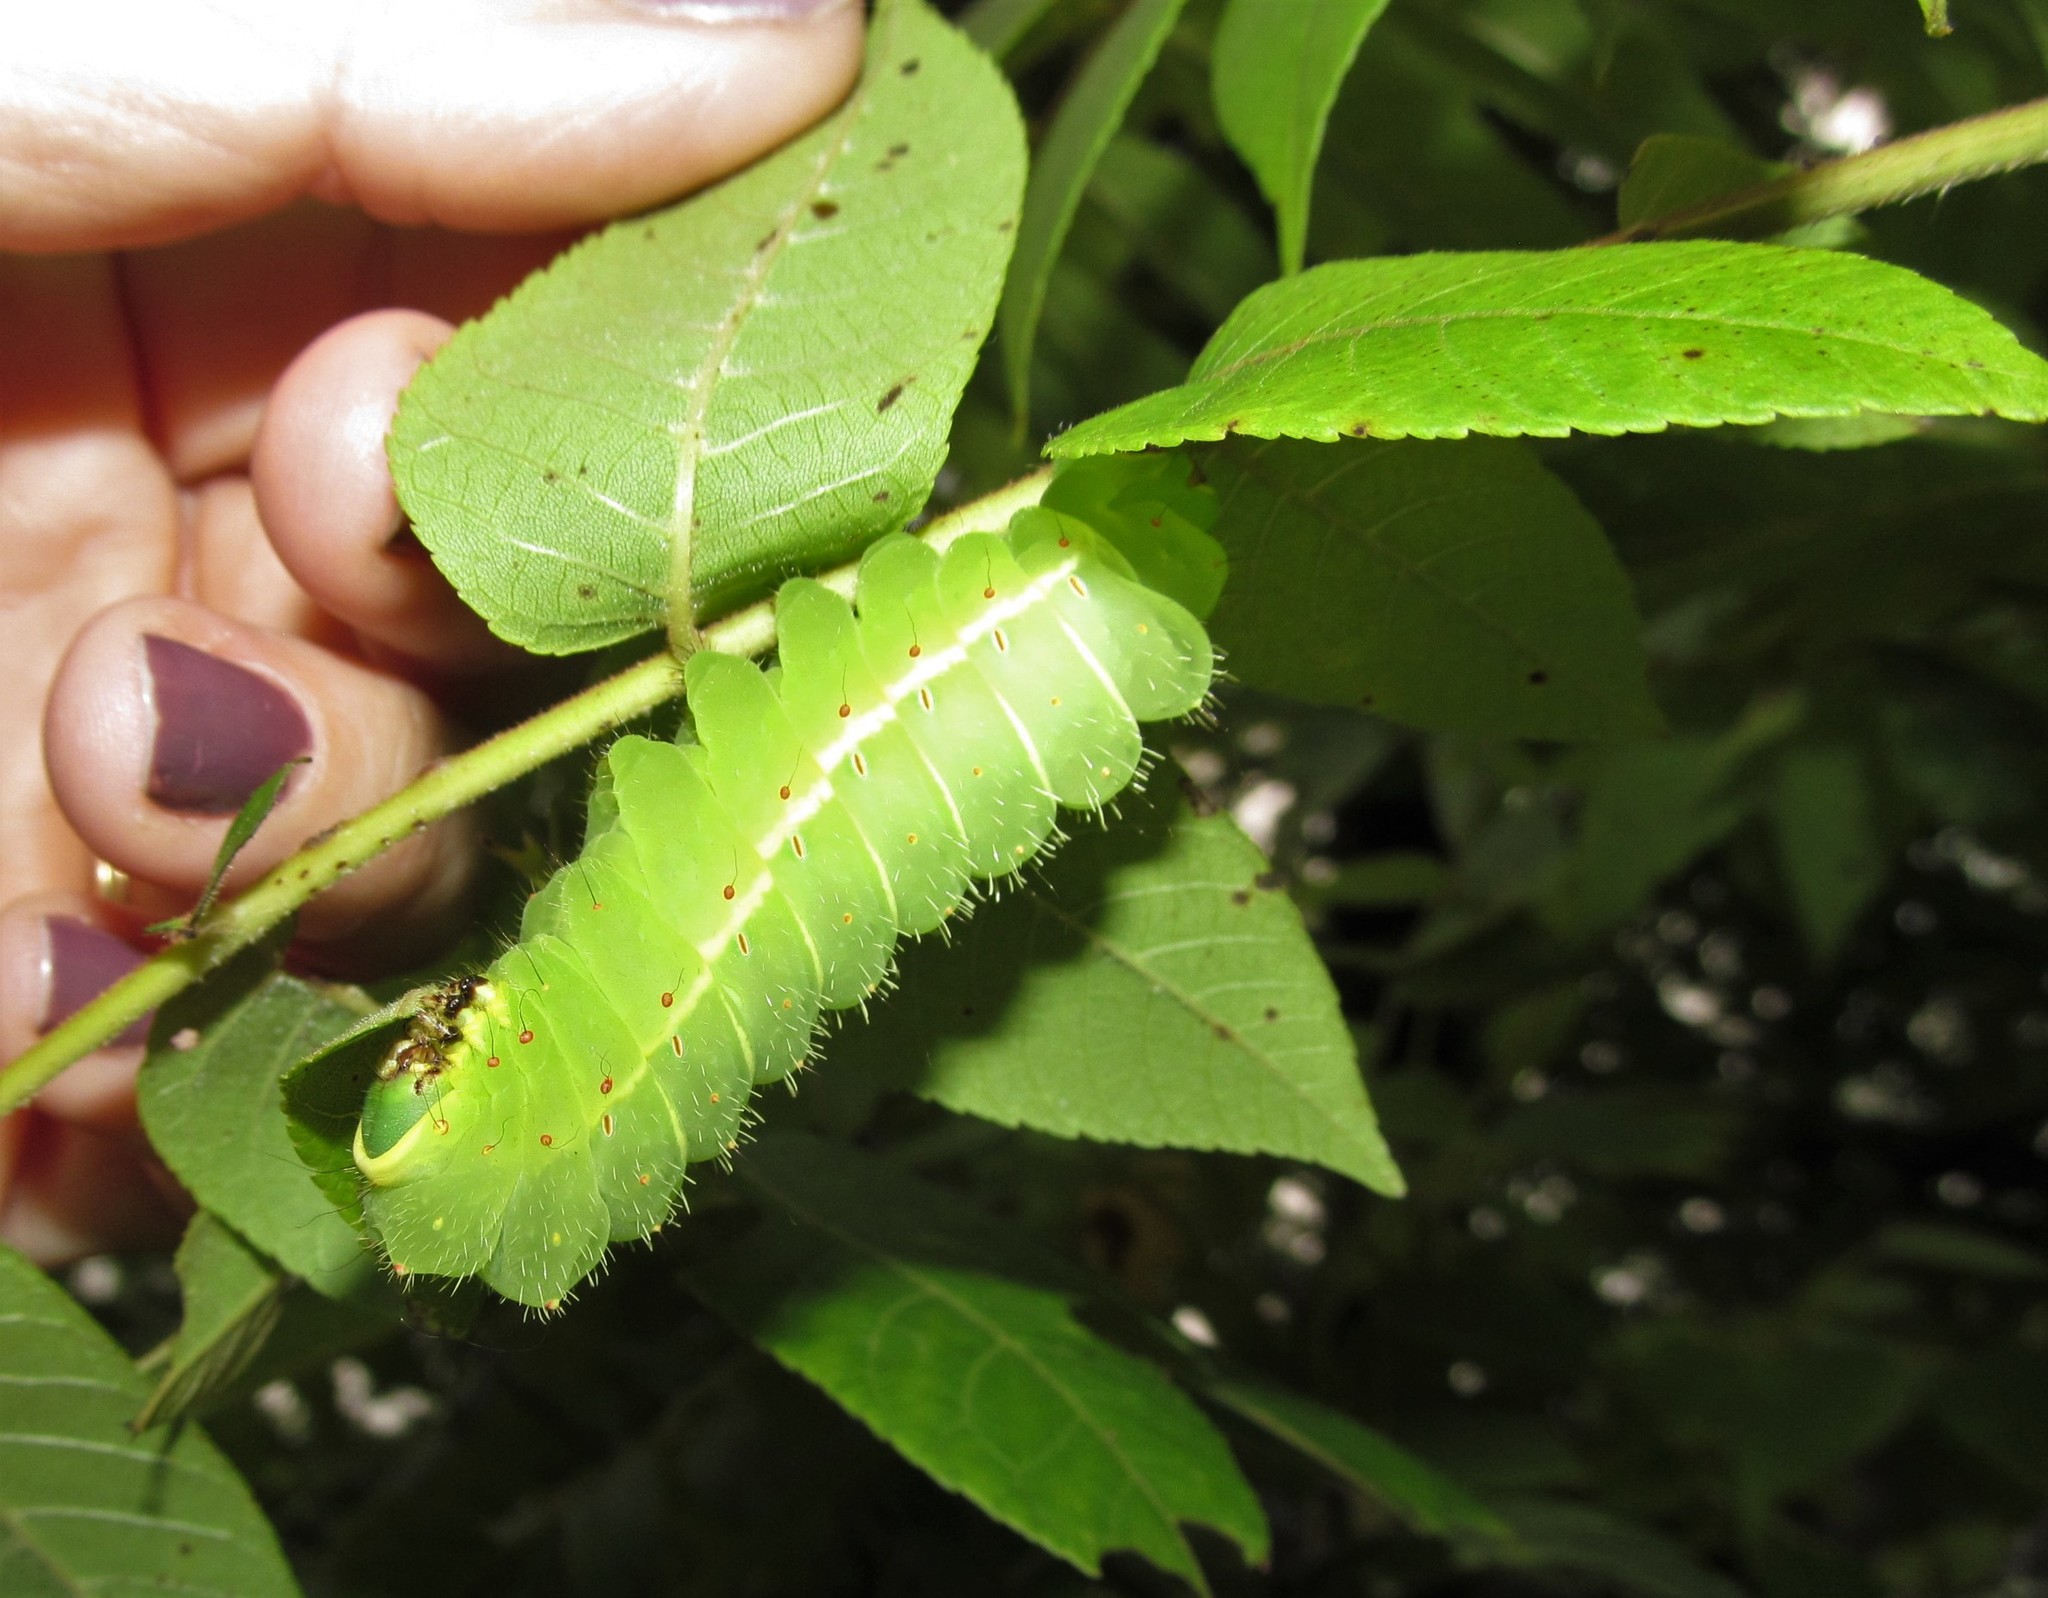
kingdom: Animalia
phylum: Arthropoda
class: Insecta
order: Lepidoptera
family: Saturniidae
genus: Actias
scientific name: Actias luna
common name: Luna moth
